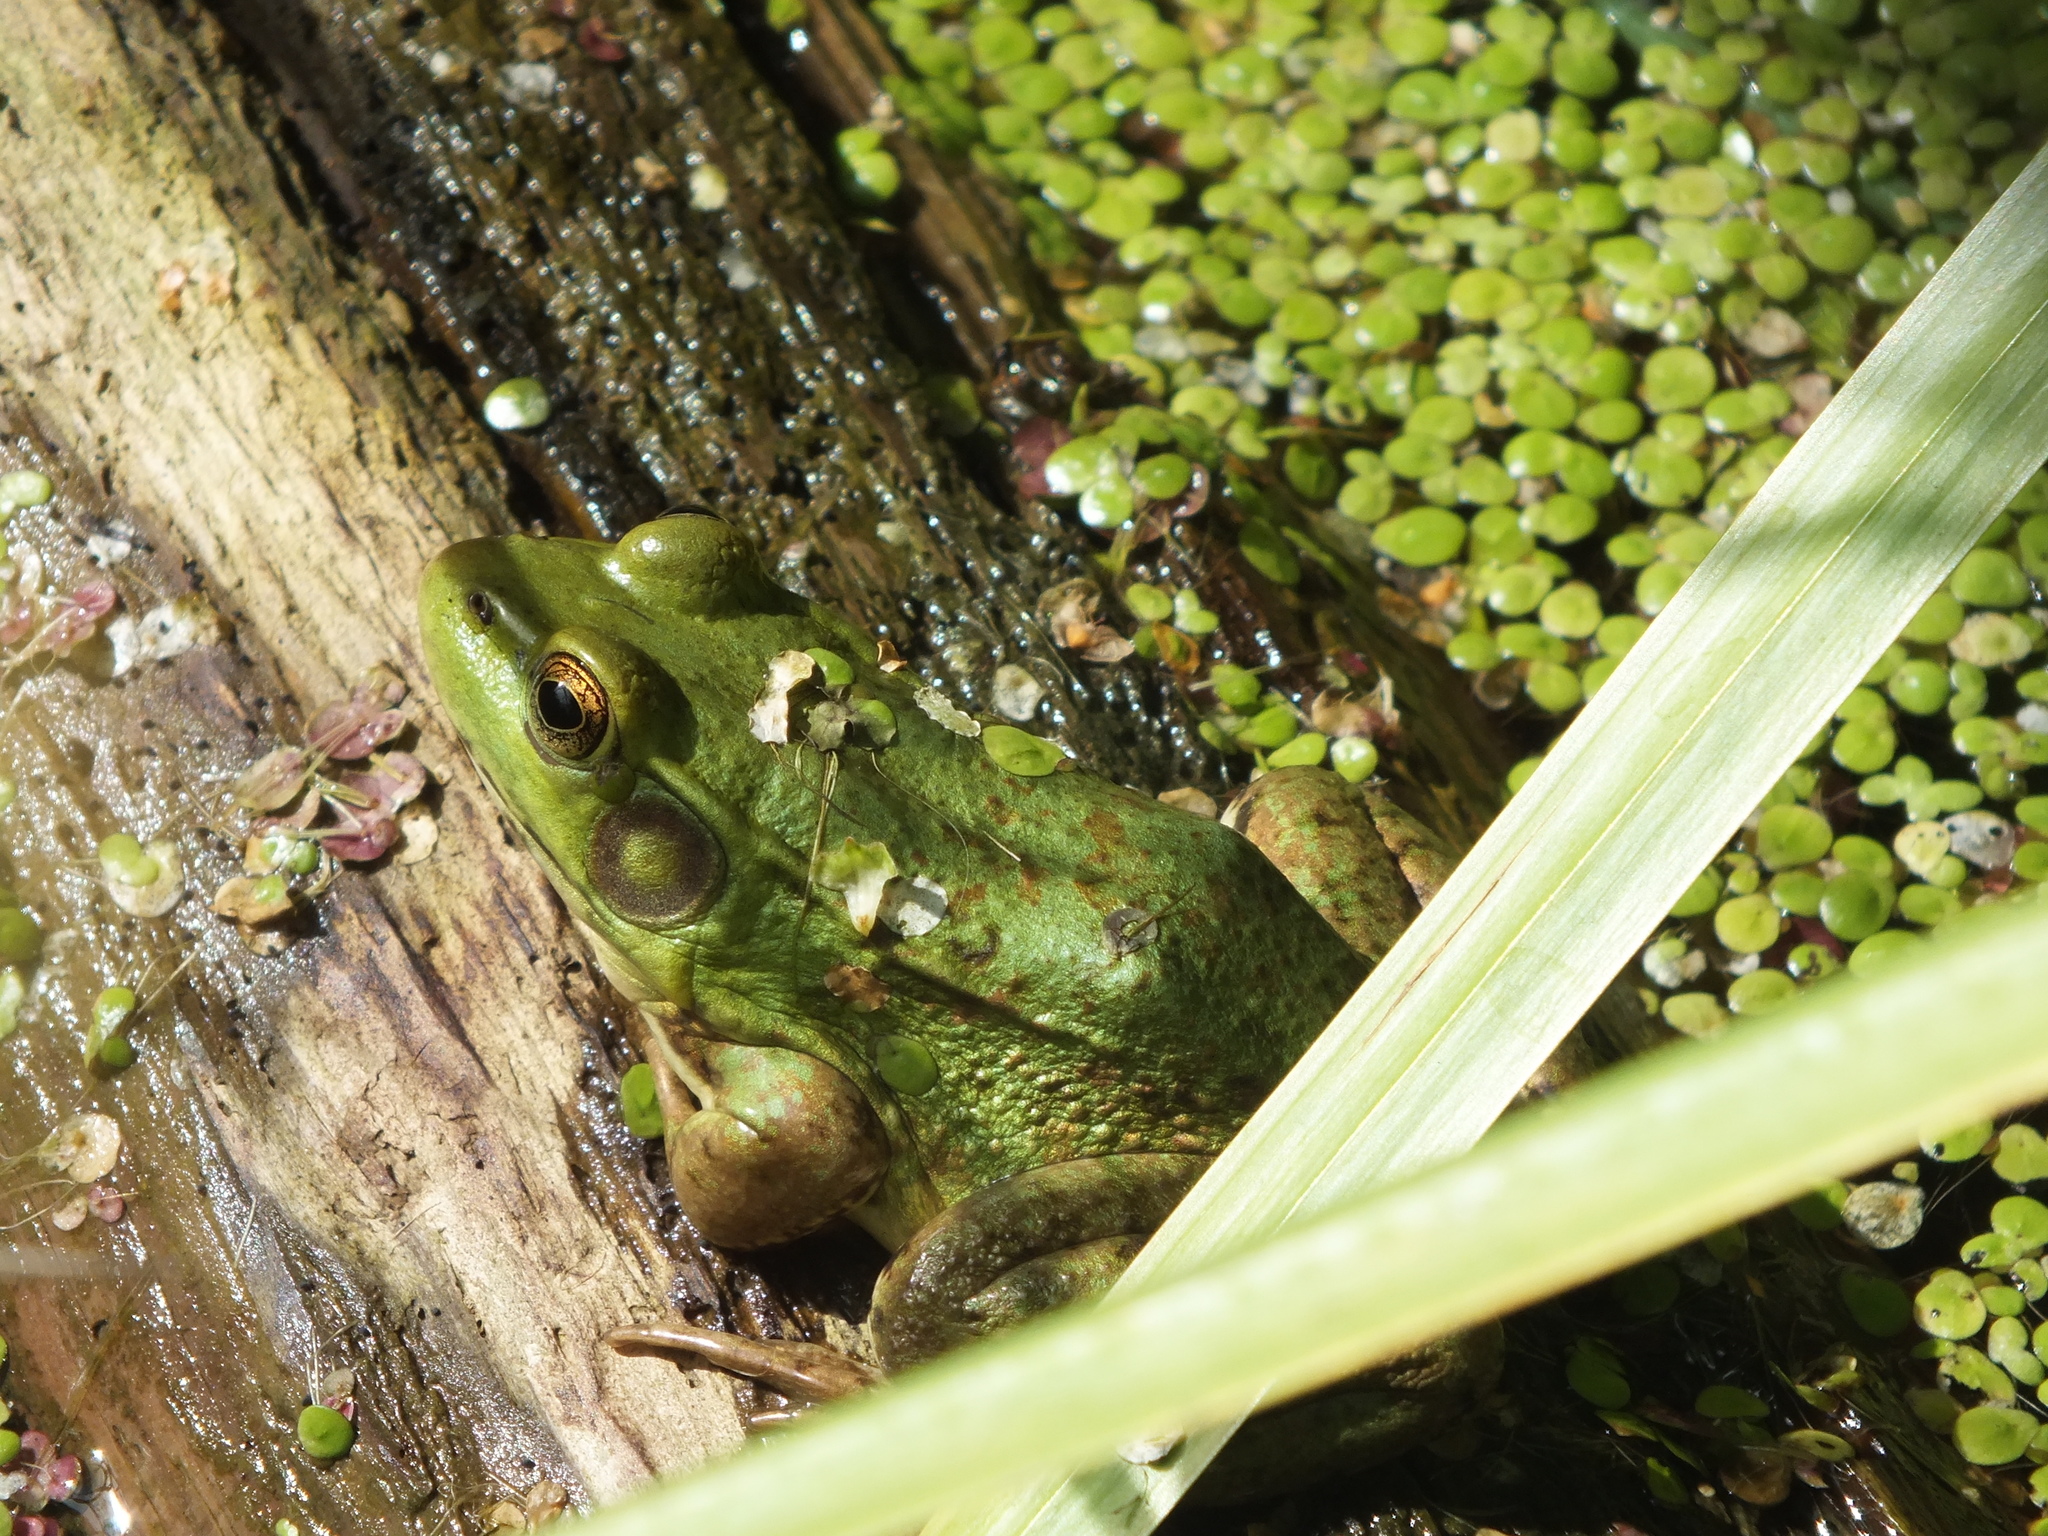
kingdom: Animalia
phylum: Chordata
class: Amphibia
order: Anura
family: Ranidae
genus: Lithobates
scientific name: Lithobates clamitans
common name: Green frog
